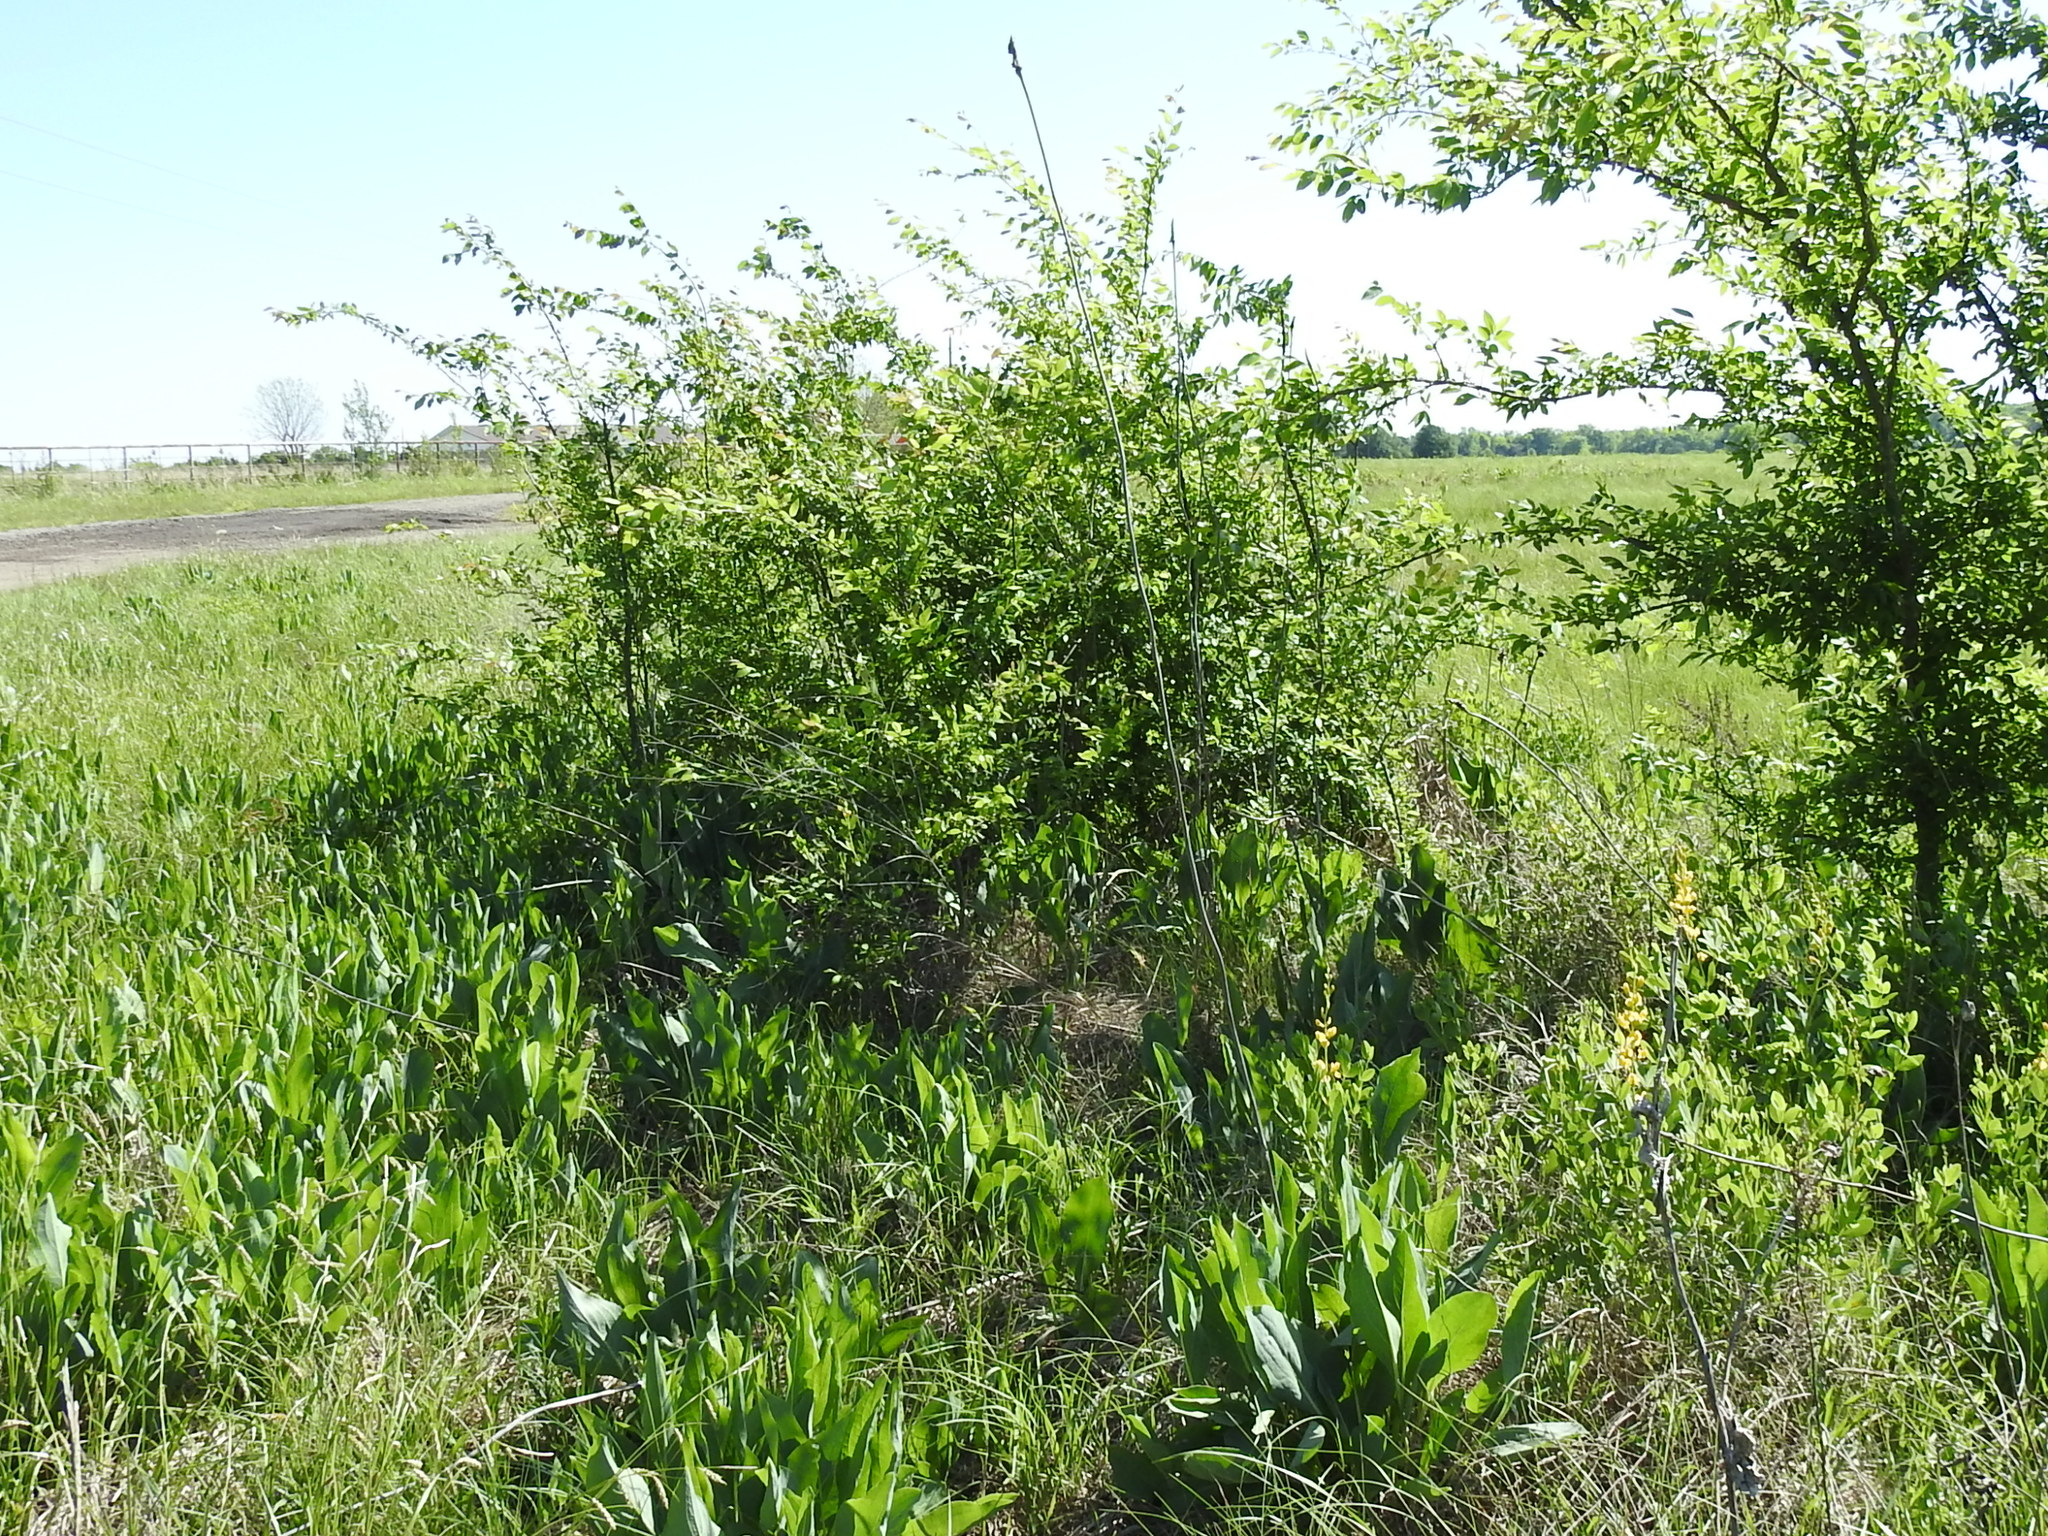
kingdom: Plantae
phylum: Tracheophyta
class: Magnoliopsida
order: Asterales
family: Asteraceae
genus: Rudbeckia
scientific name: Rudbeckia maxima
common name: Cabbage coneflower
